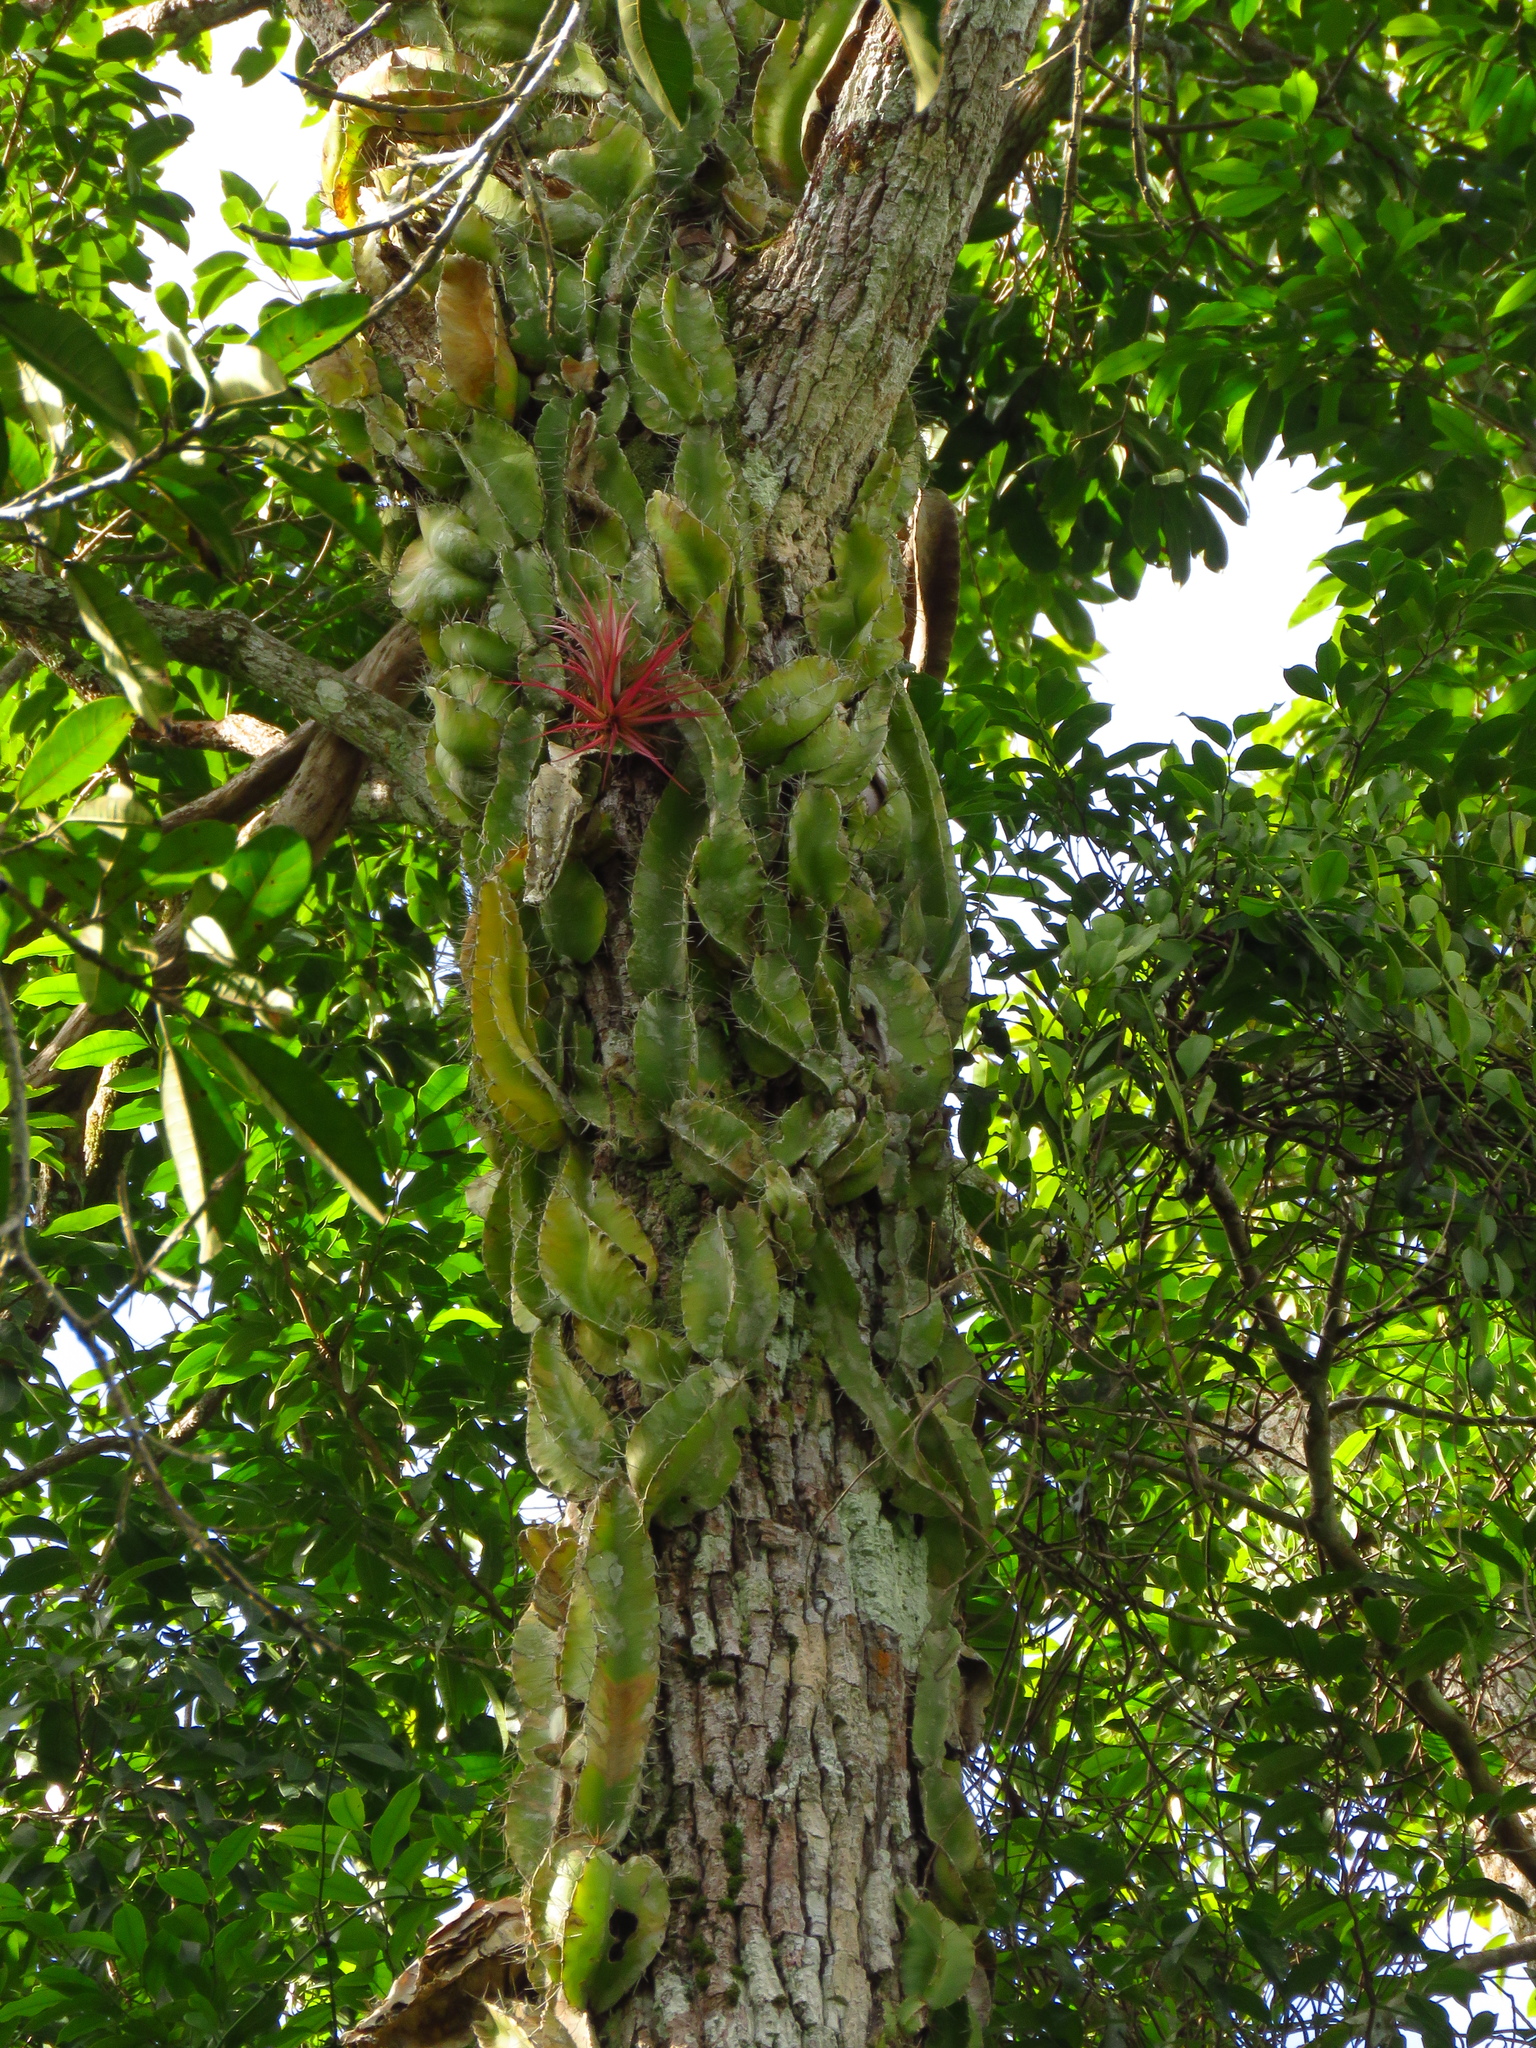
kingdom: Plantae
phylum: Tracheophyta
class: Magnoliopsida
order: Caryophyllales
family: Cactaceae
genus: Deamia
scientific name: Deamia testudo
